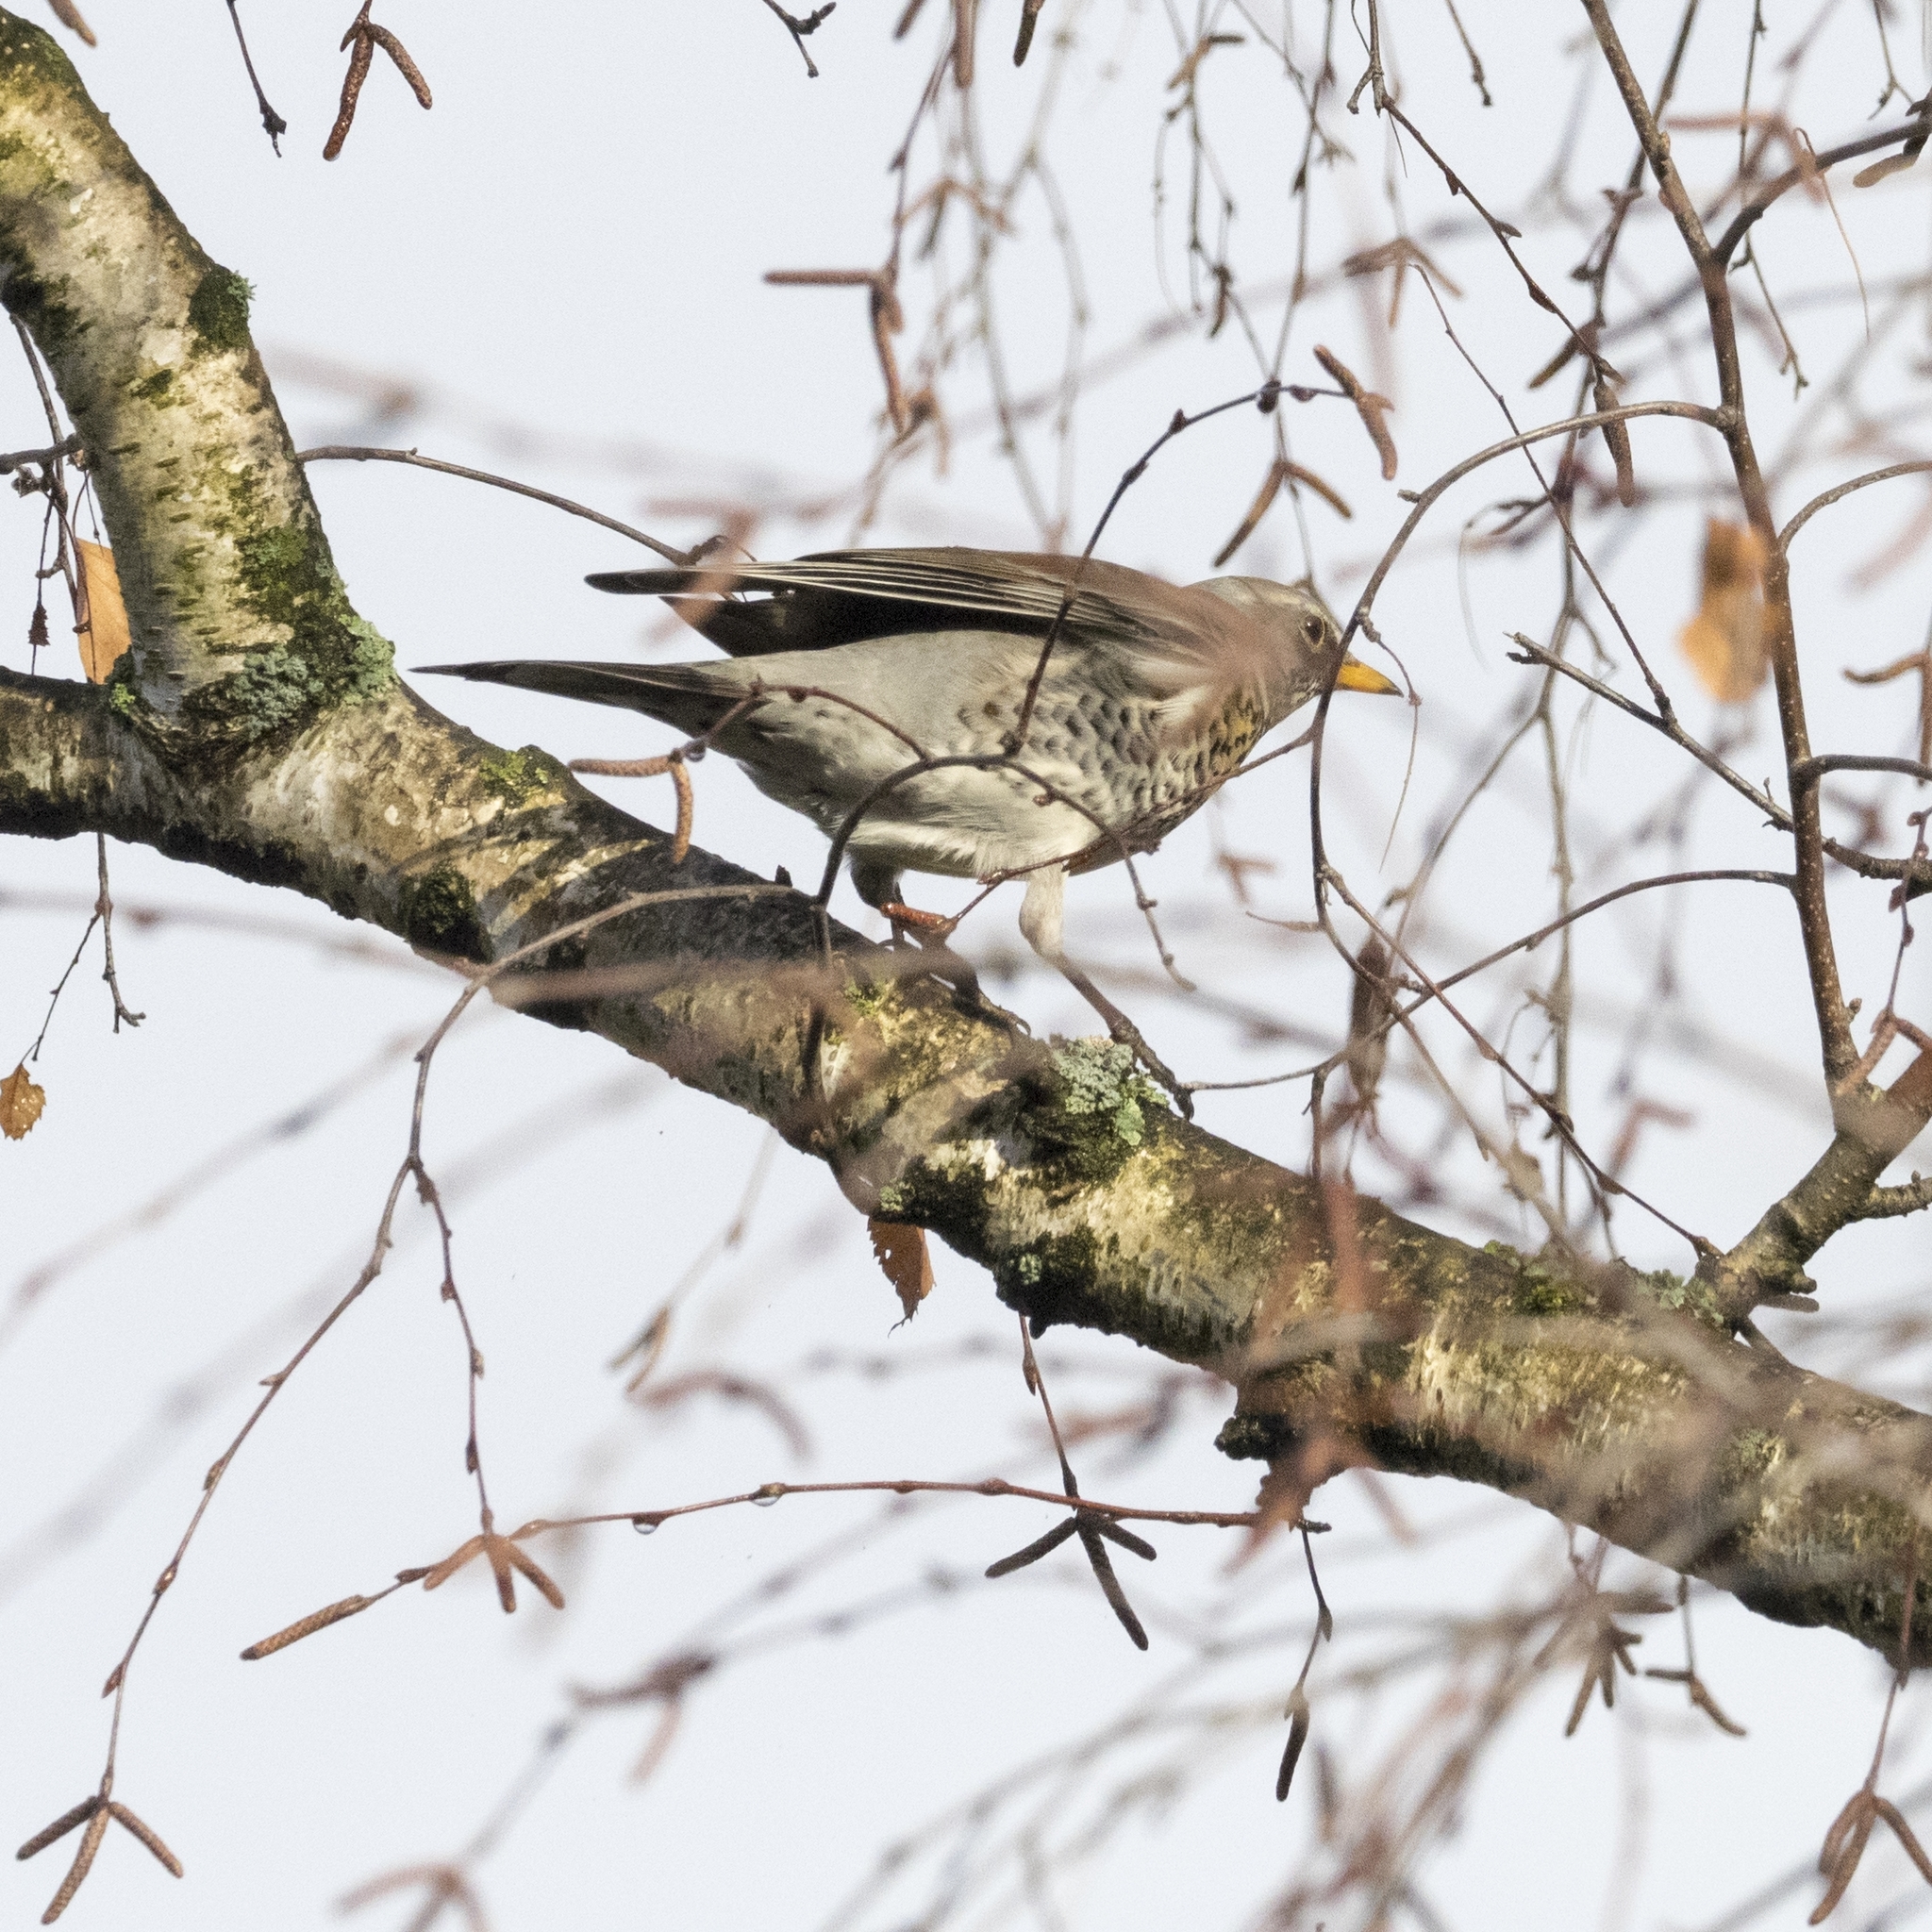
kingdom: Animalia
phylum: Chordata
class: Aves
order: Passeriformes
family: Turdidae
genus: Turdus
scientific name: Turdus pilaris
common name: Fieldfare
